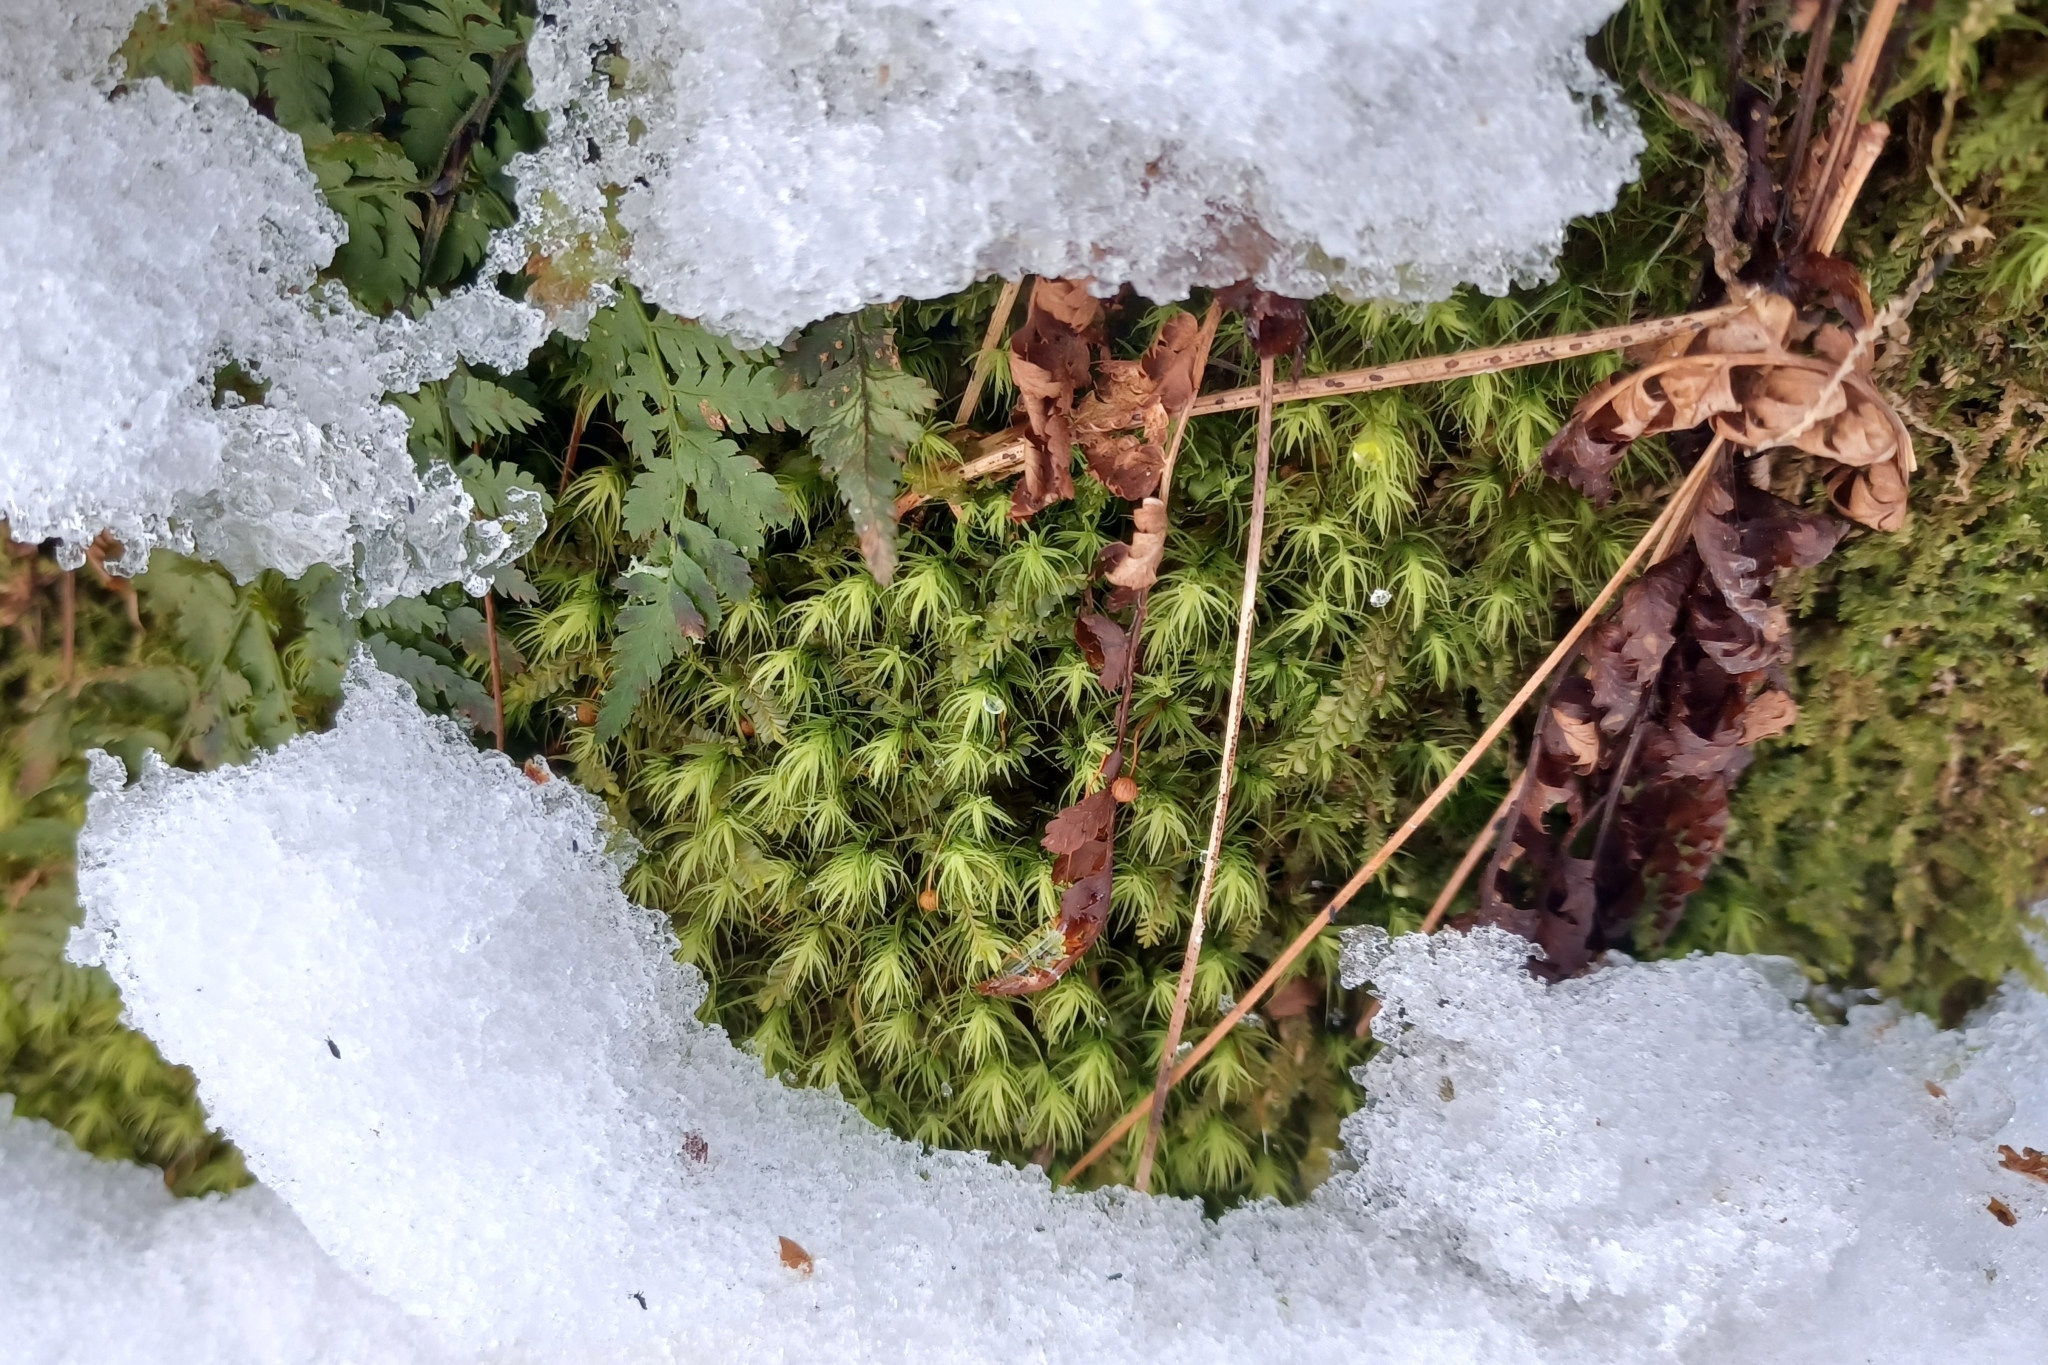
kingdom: Plantae
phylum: Bryophyta
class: Bryopsida
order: Bartramiales
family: Bartramiaceae
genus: Bartramia
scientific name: Bartramia ithyphylla
